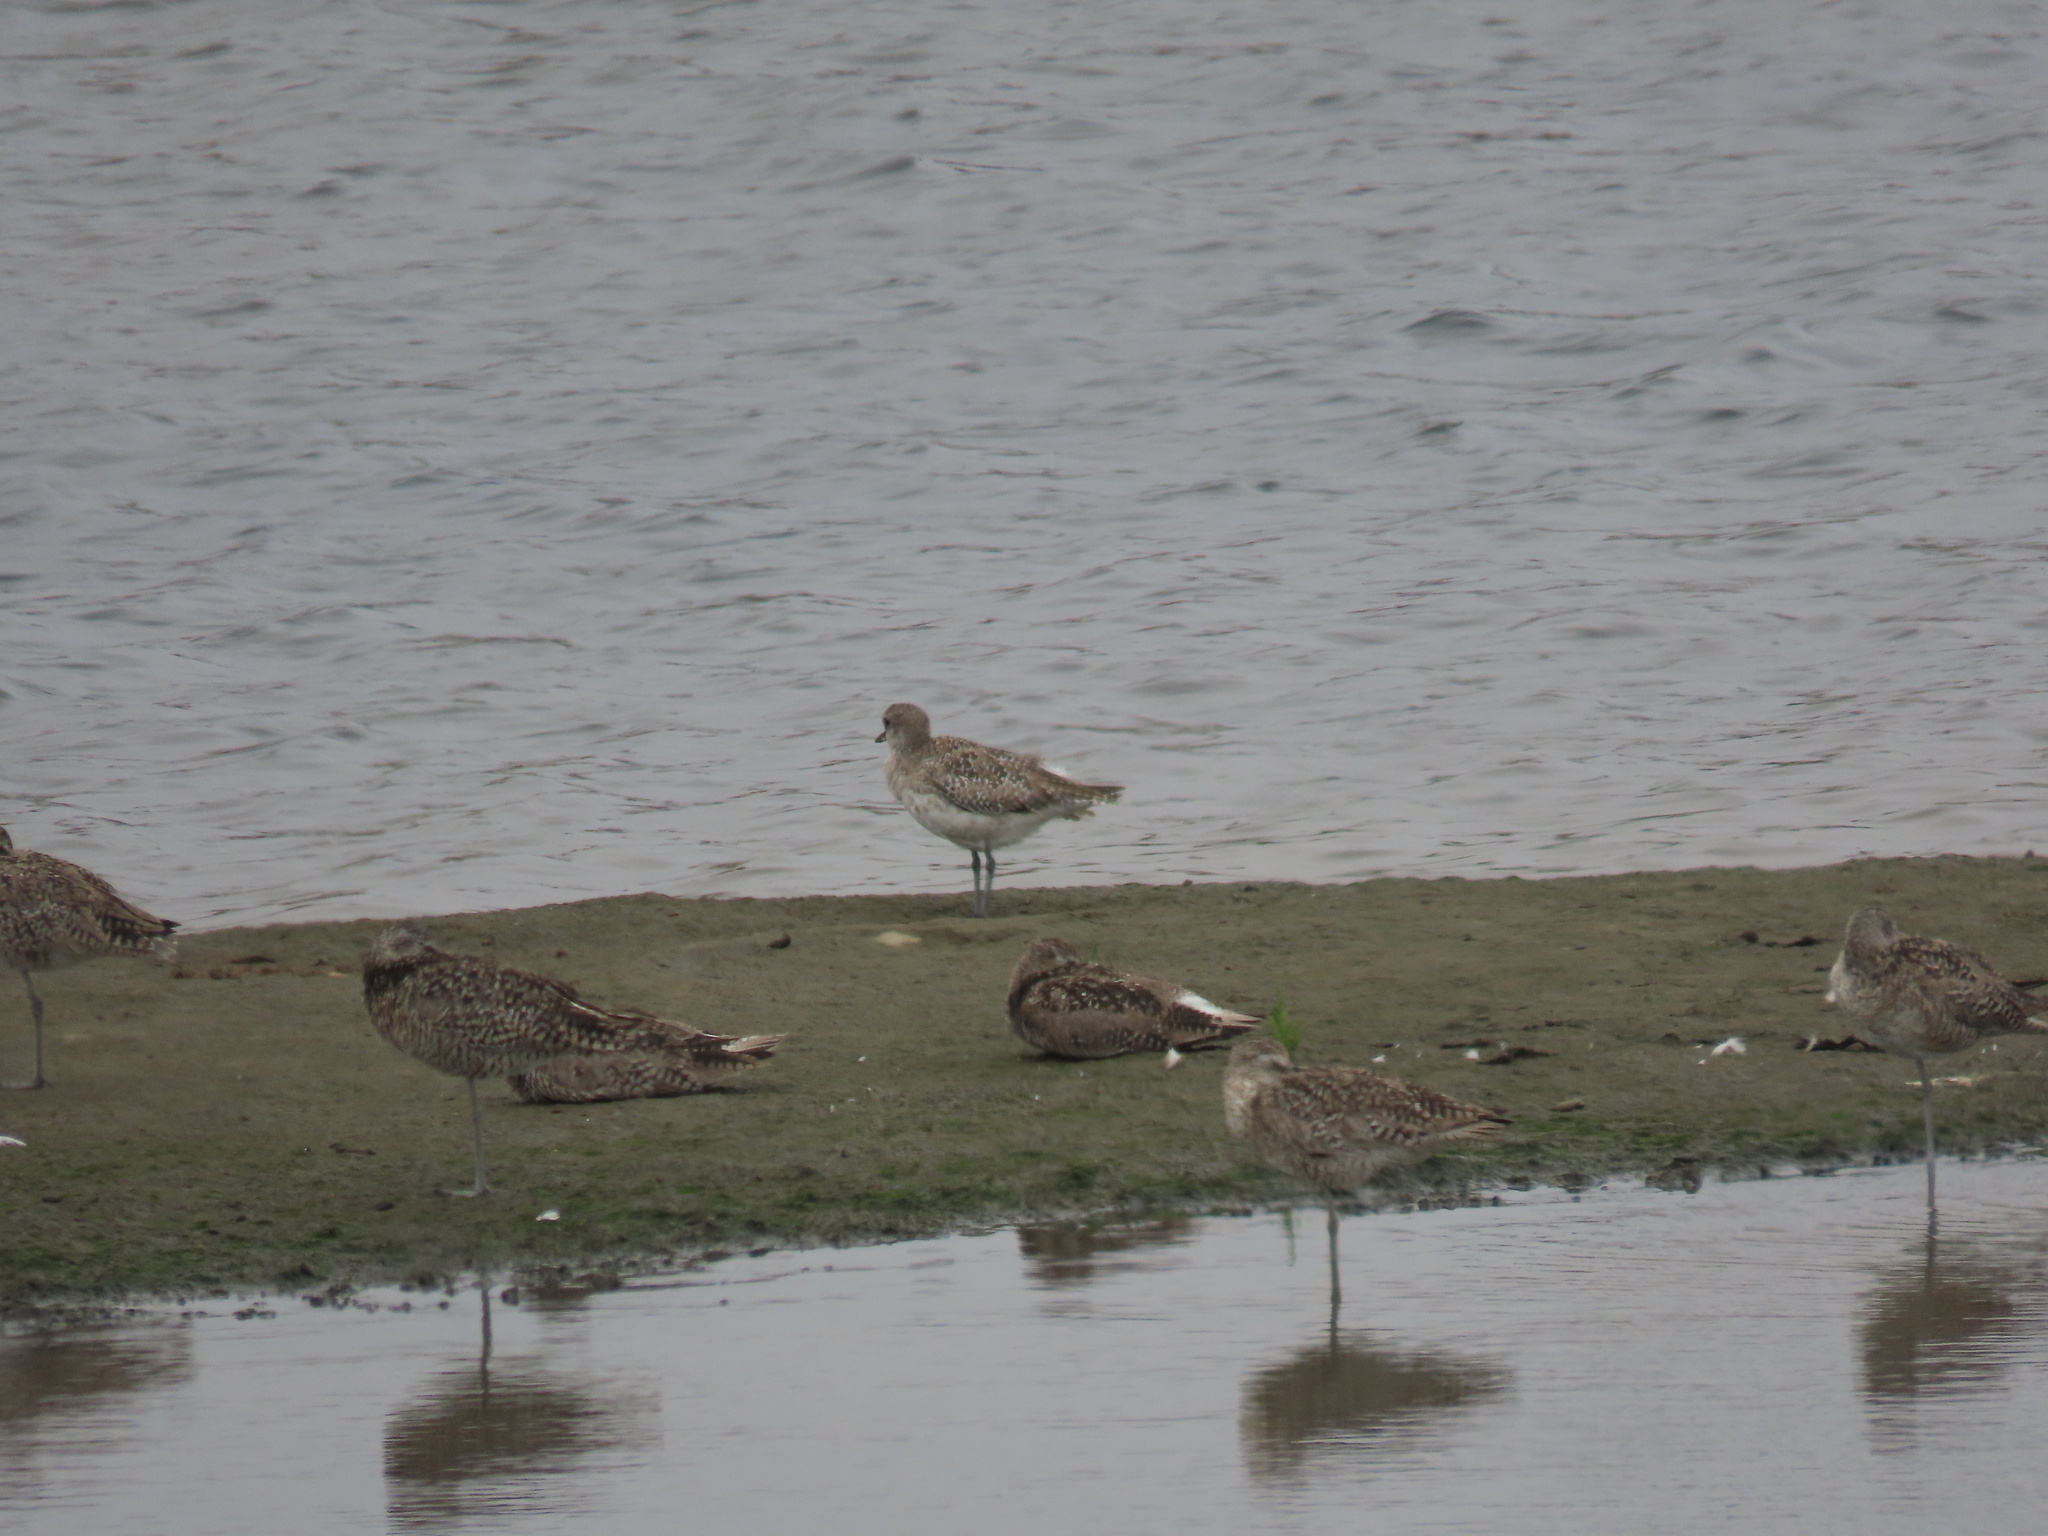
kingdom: Animalia
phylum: Chordata
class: Aves
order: Charadriiformes
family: Charadriidae
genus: Pluvialis
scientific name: Pluvialis squatarola
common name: Grey plover
